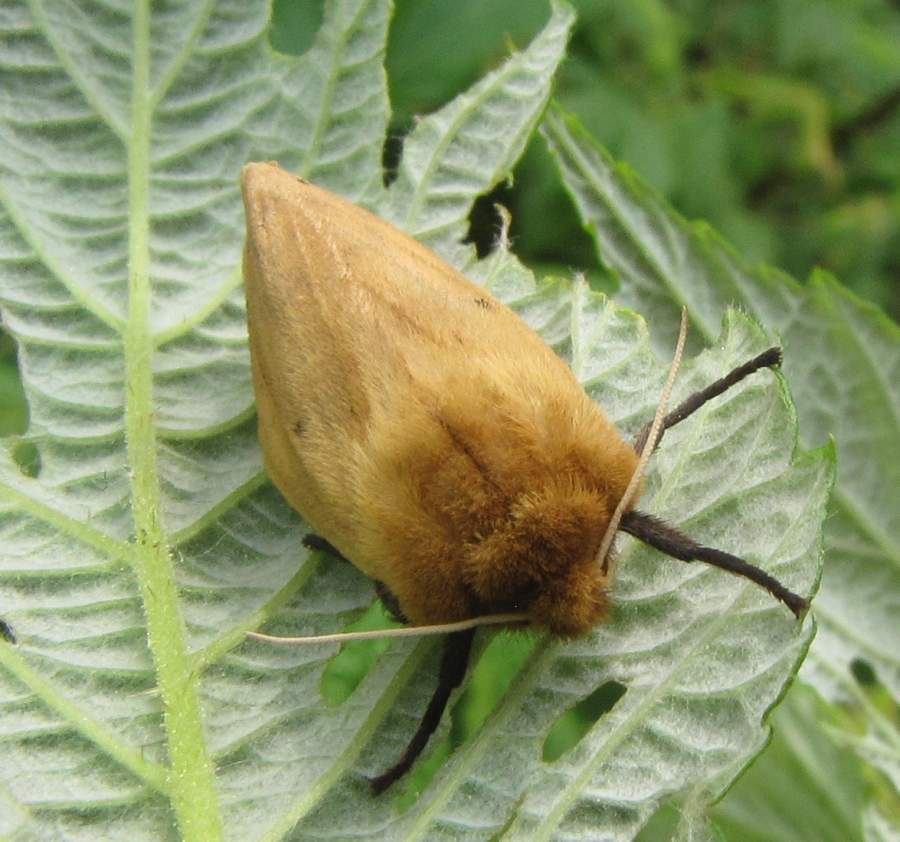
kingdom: Animalia
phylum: Arthropoda
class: Insecta
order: Lepidoptera
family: Erebidae
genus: Pyrrharctia
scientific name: Pyrrharctia isabella
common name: Isabella tiger moth
